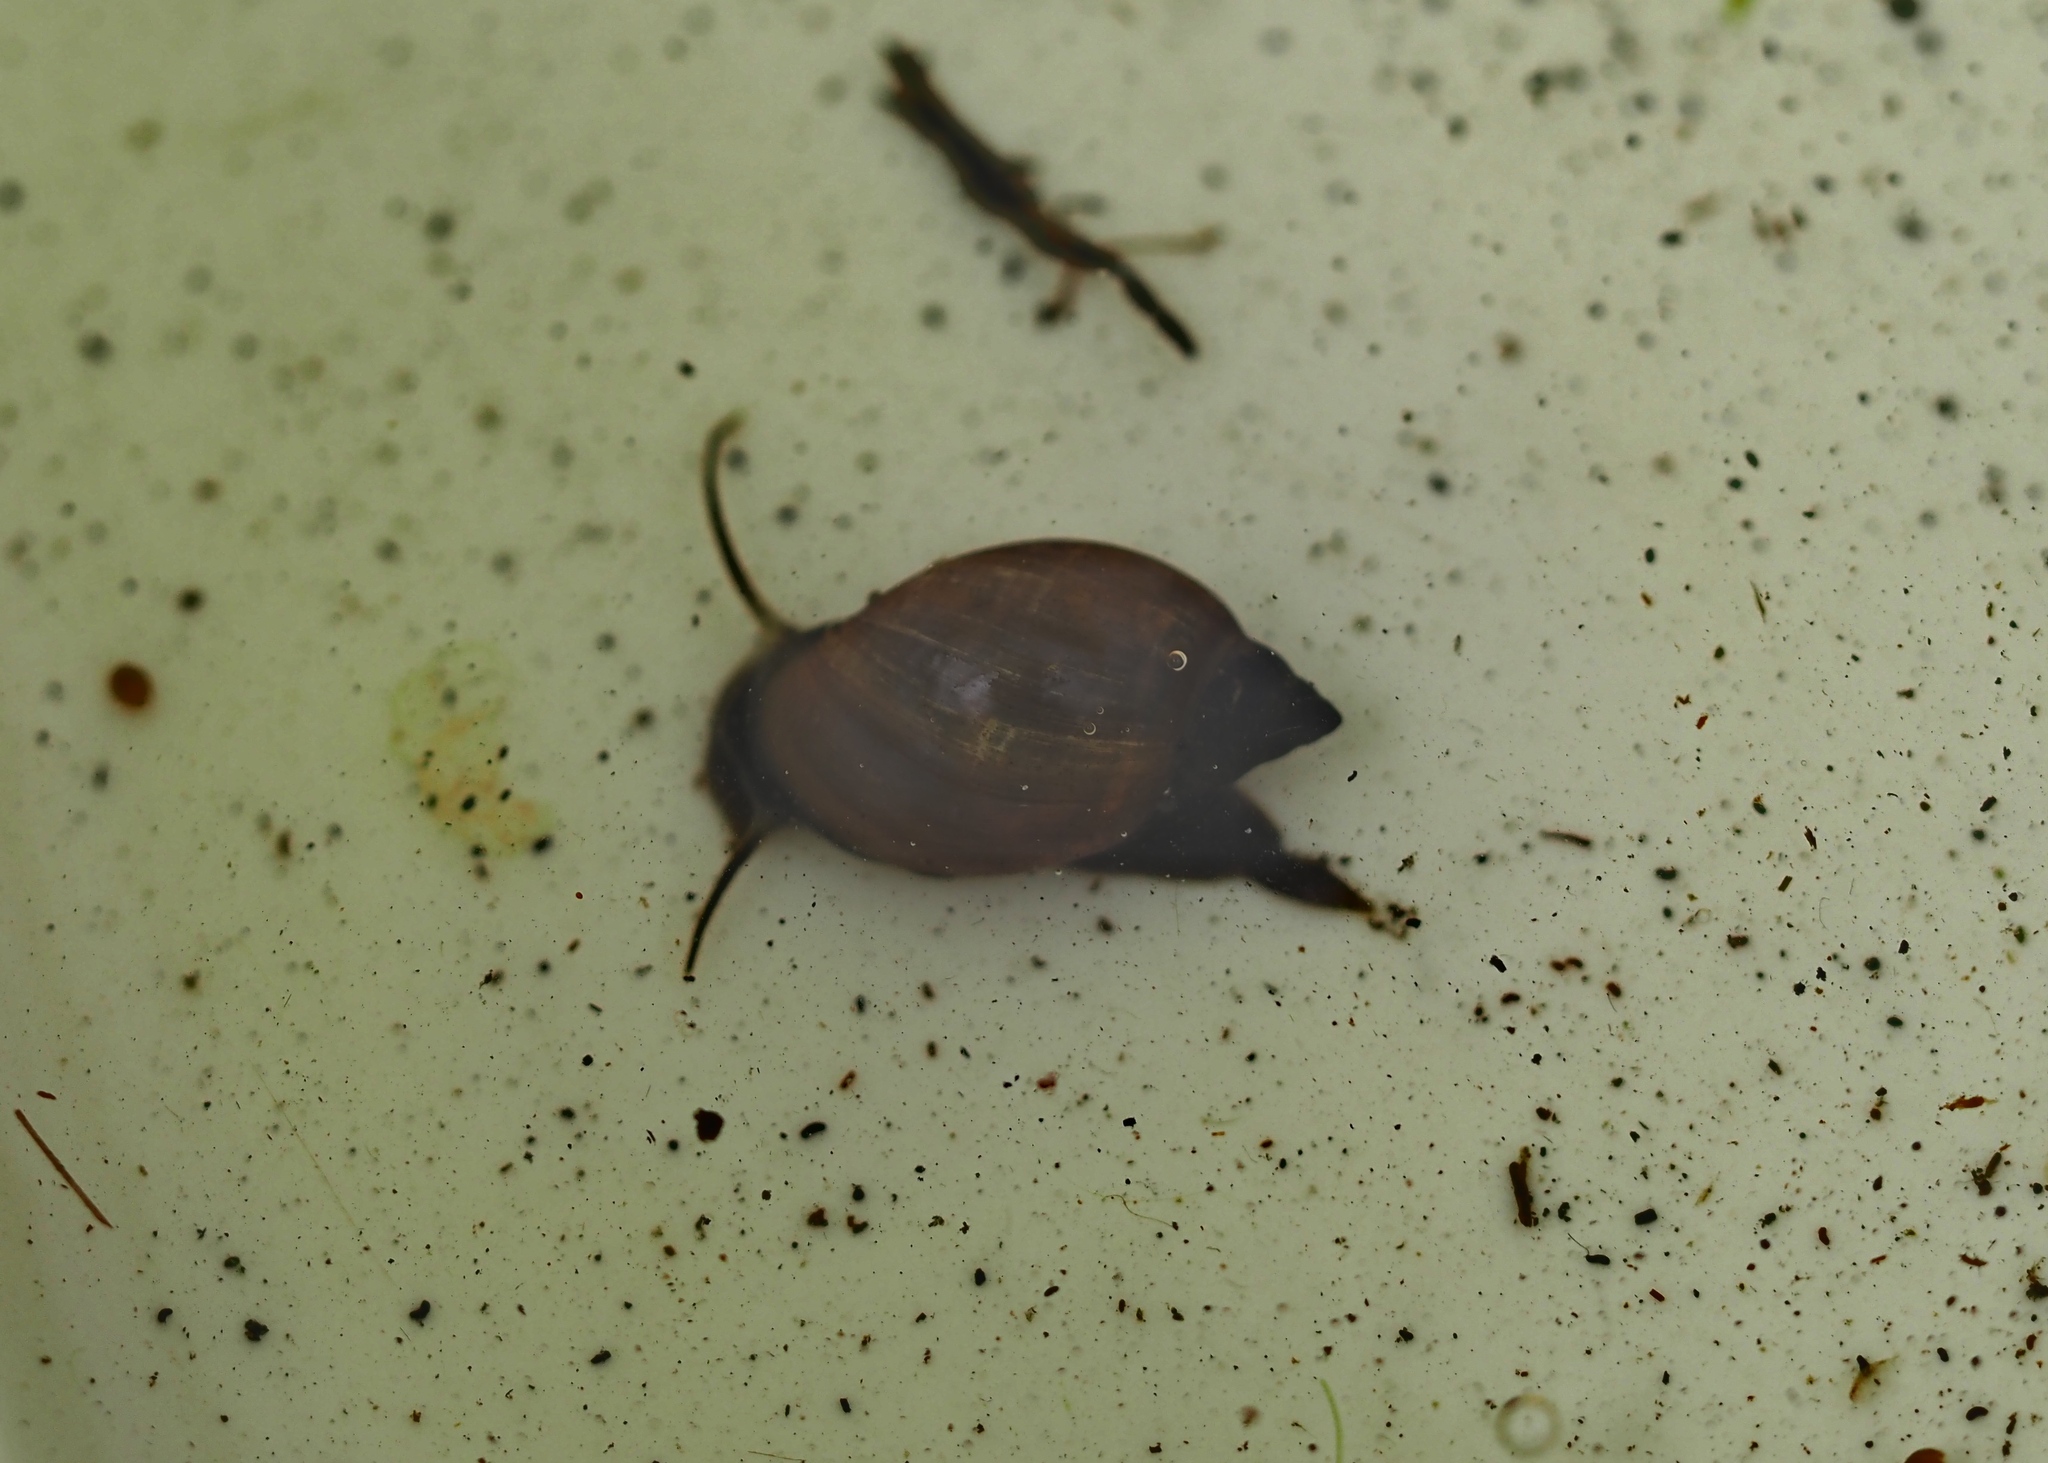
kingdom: Animalia
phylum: Mollusca
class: Gastropoda
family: Physidae
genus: Physella
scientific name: Physella acuta
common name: European physa
